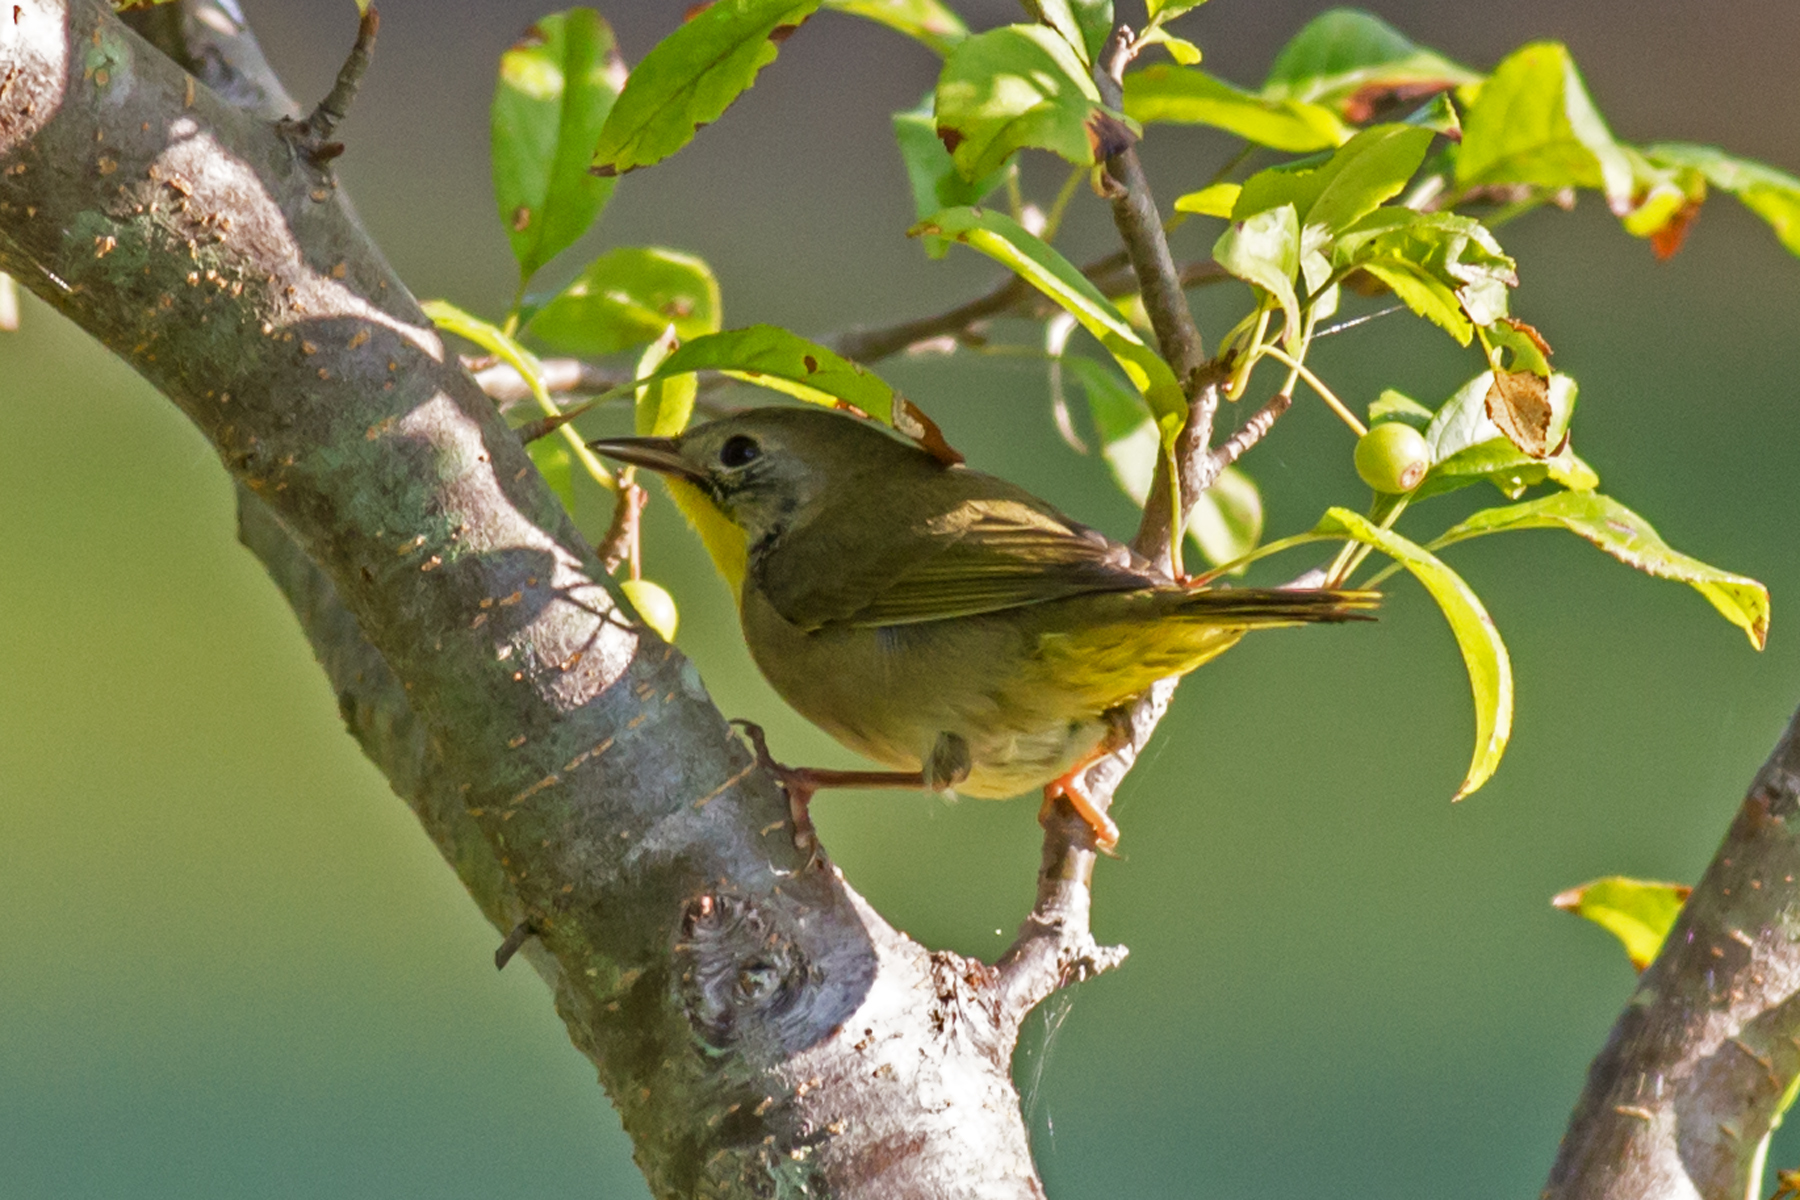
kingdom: Animalia
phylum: Chordata
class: Aves
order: Passeriformes
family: Parulidae
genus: Geothlypis
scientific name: Geothlypis trichas
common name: Common yellowthroat
